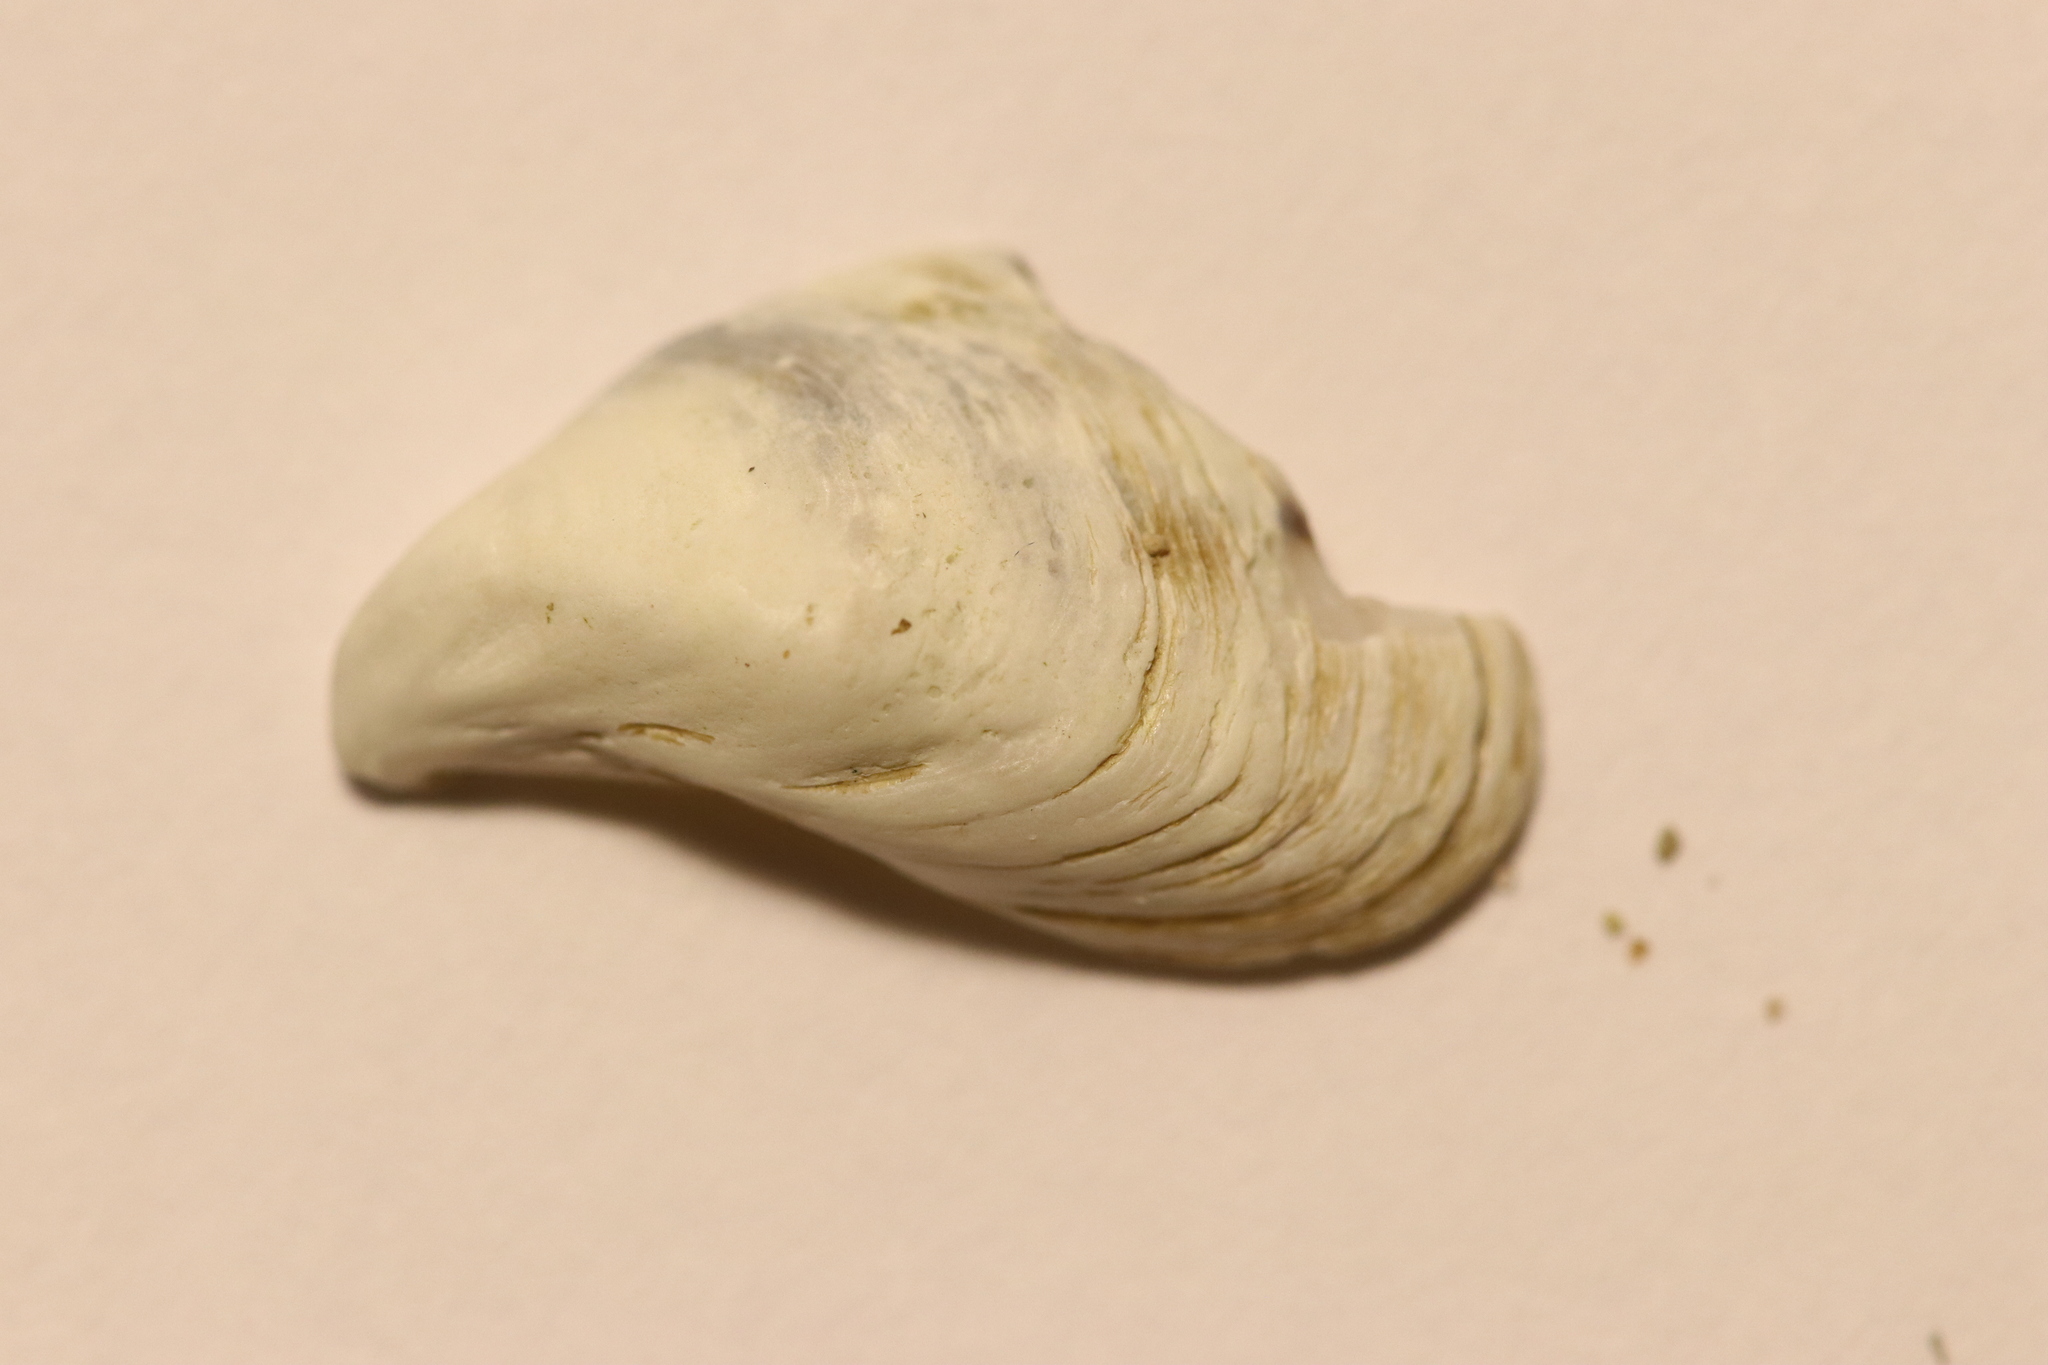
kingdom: Animalia
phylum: Mollusca
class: Bivalvia
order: Myida
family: Dreissenidae
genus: Dreissena
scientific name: Dreissena bugensis
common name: Quagga mussel
